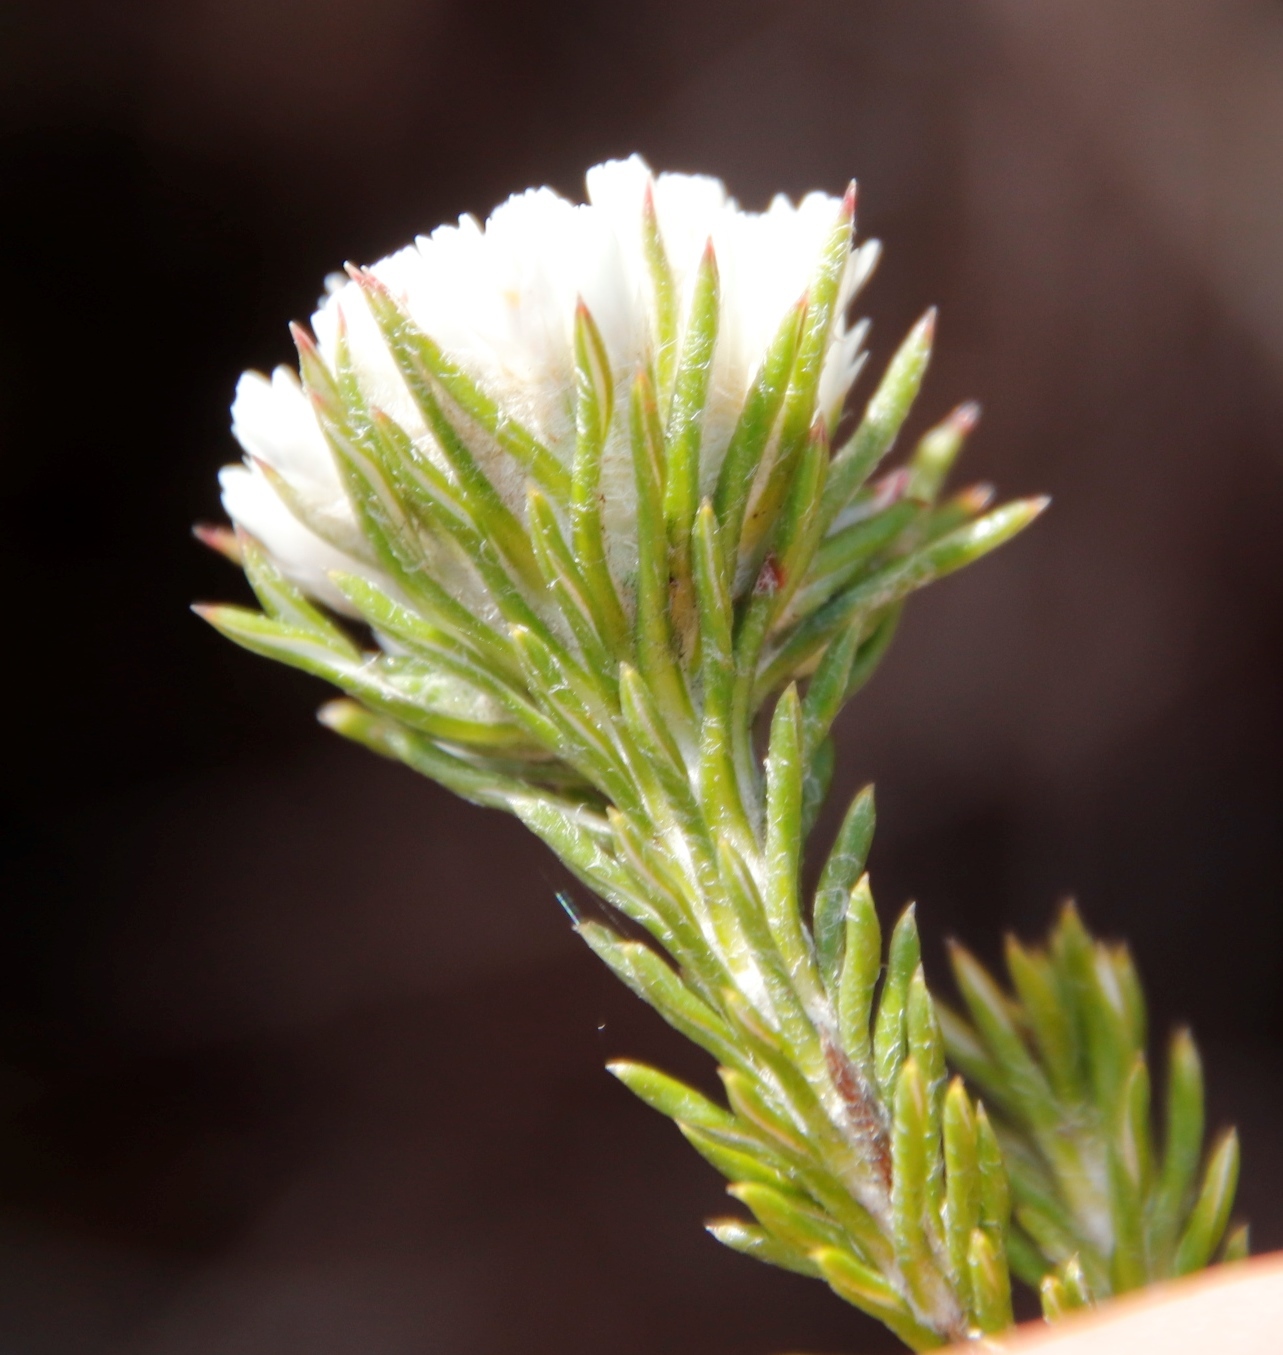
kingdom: Plantae
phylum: Tracheophyta
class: Magnoliopsida
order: Asterales
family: Asteraceae
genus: Metalasia
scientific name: Metalasia compacta
